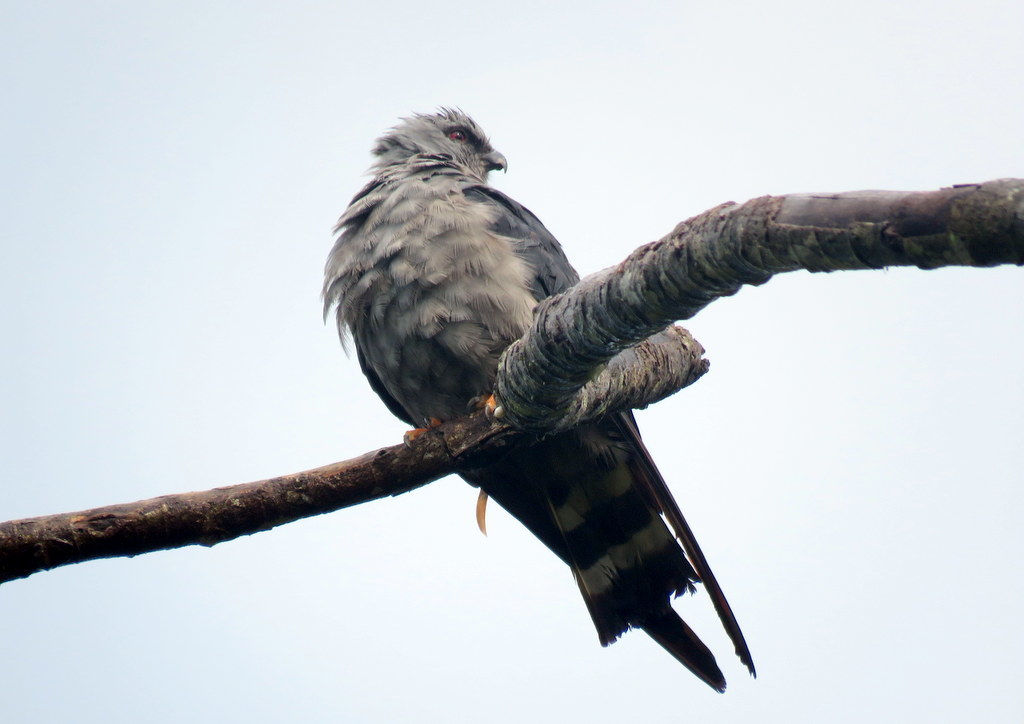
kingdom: Animalia
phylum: Chordata
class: Aves
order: Accipitriformes
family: Accipitridae
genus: Ictinia
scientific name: Ictinia plumbea
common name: Plumbeous kite
